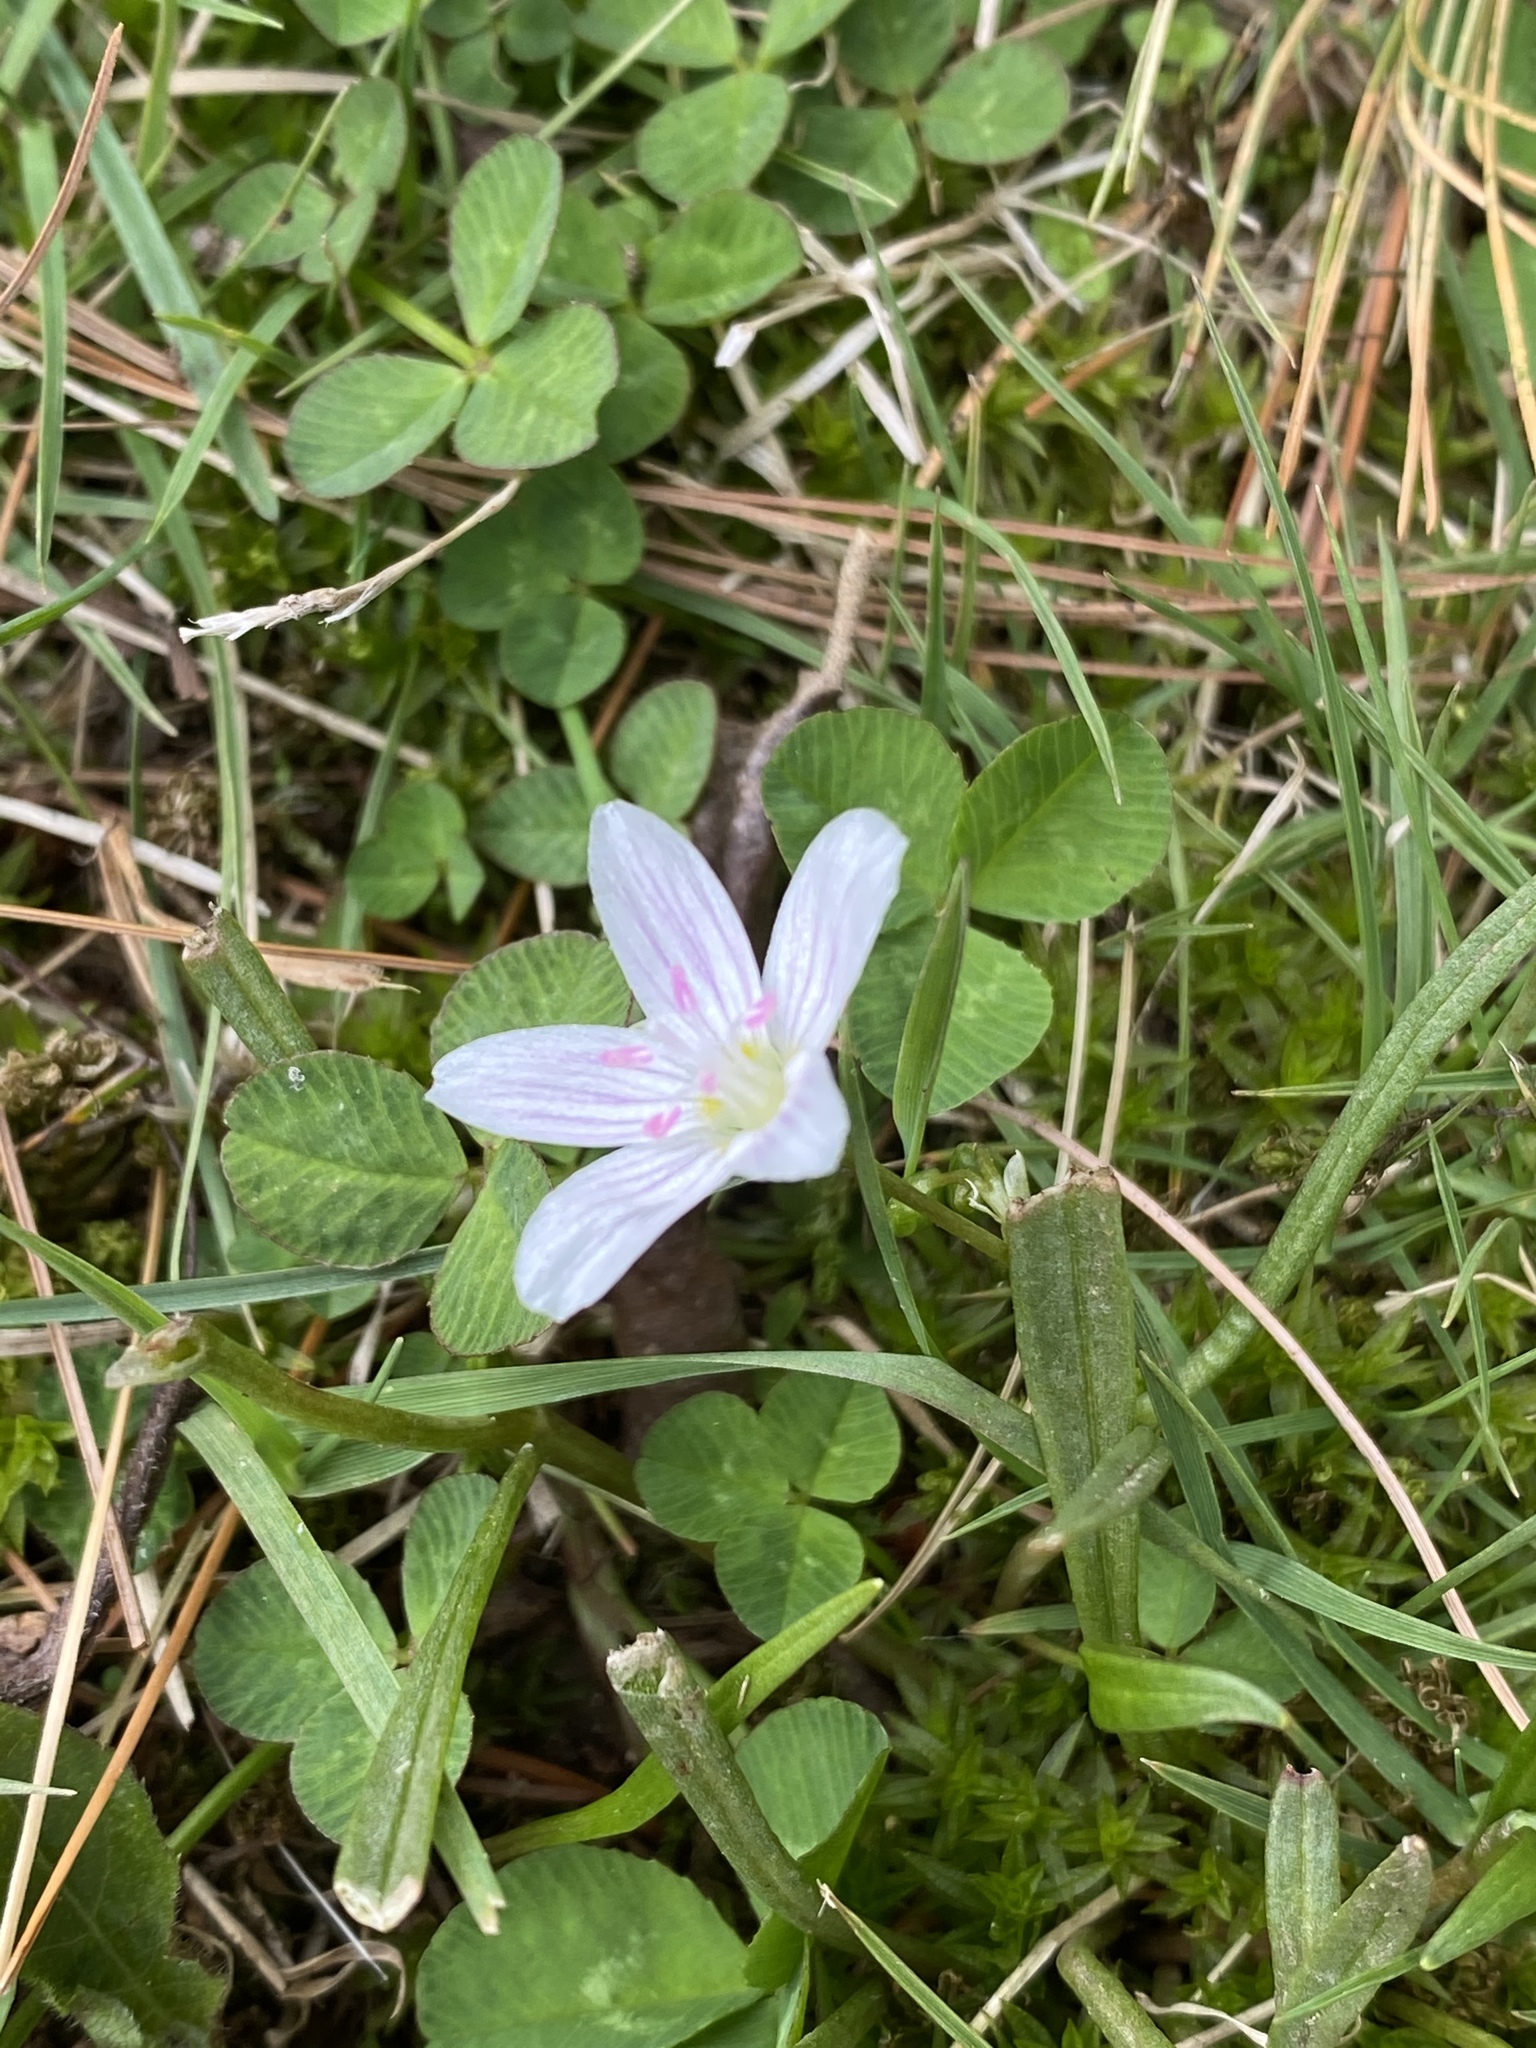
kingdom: Plantae
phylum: Tracheophyta
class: Magnoliopsida
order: Caryophyllales
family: Montiaceae
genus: Claytonia
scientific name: Claytonia virginica
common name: Virginia springbeauty
